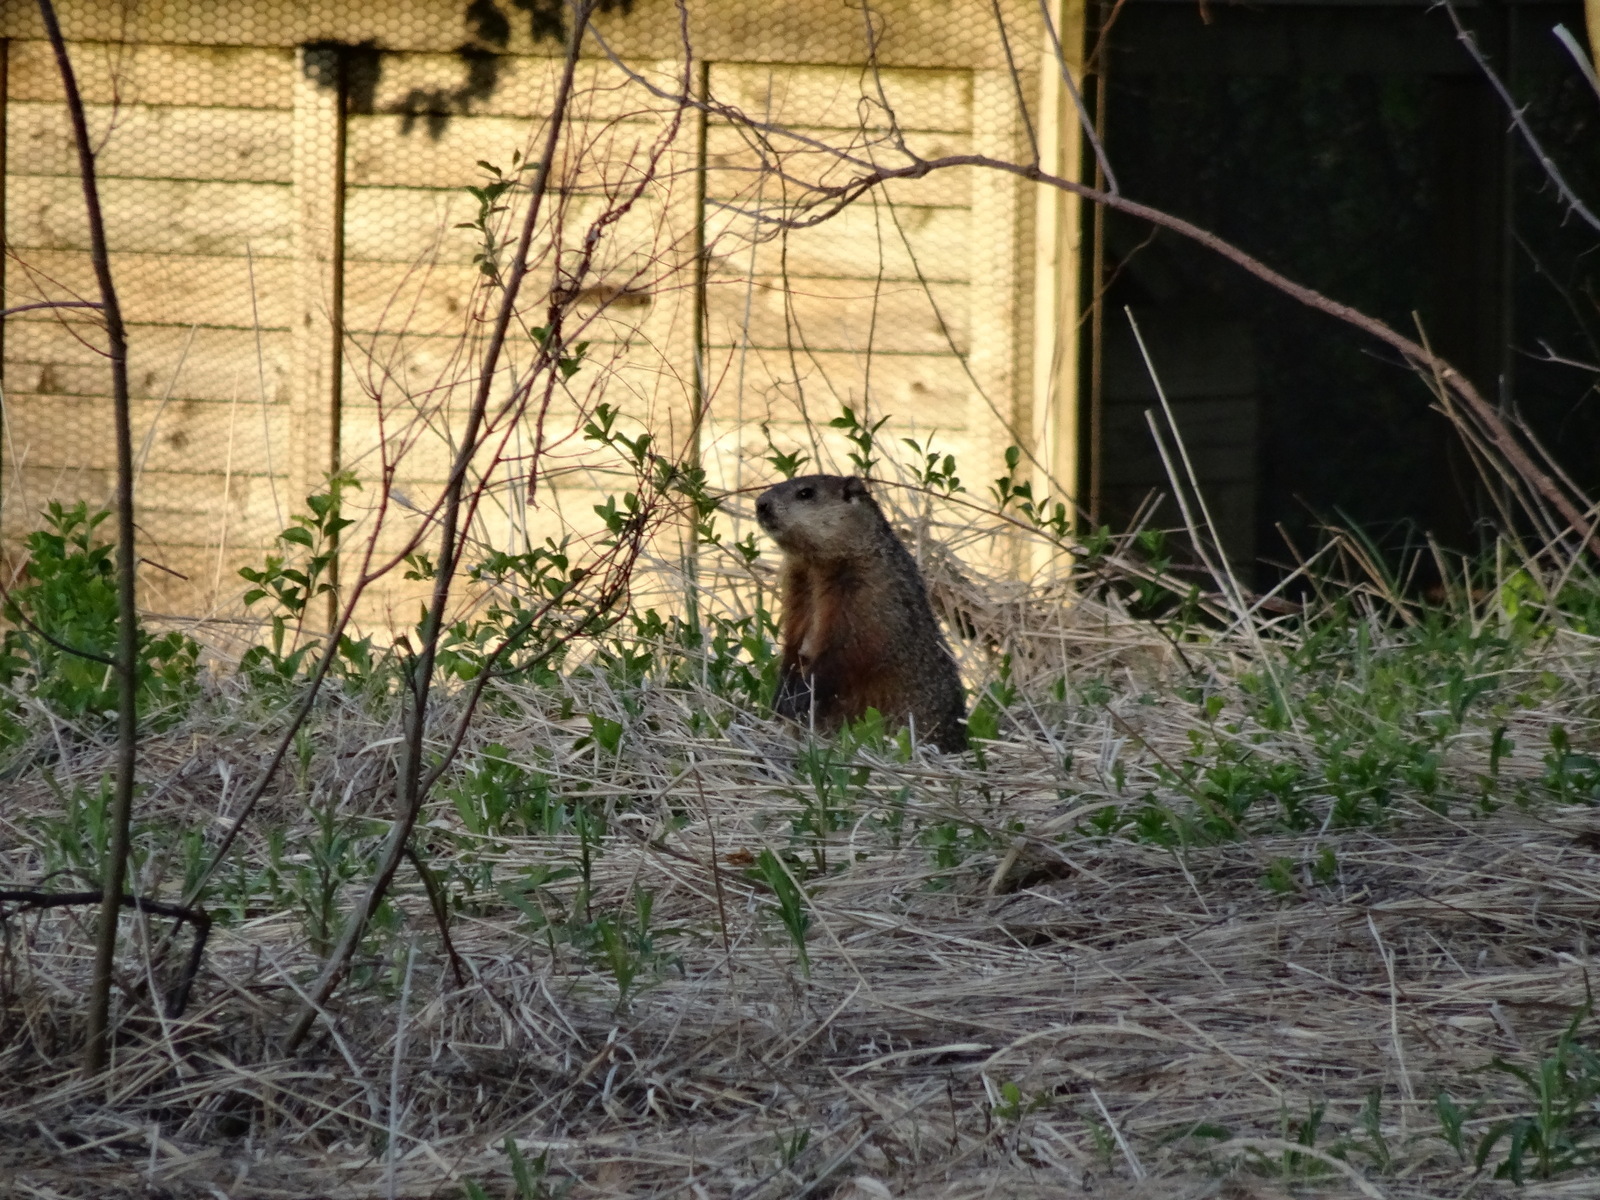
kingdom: Animalia
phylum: Chordata
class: Mammalia
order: Rodentia
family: Sciuridae
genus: Marmota
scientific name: Marmota monax
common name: Groundhog
